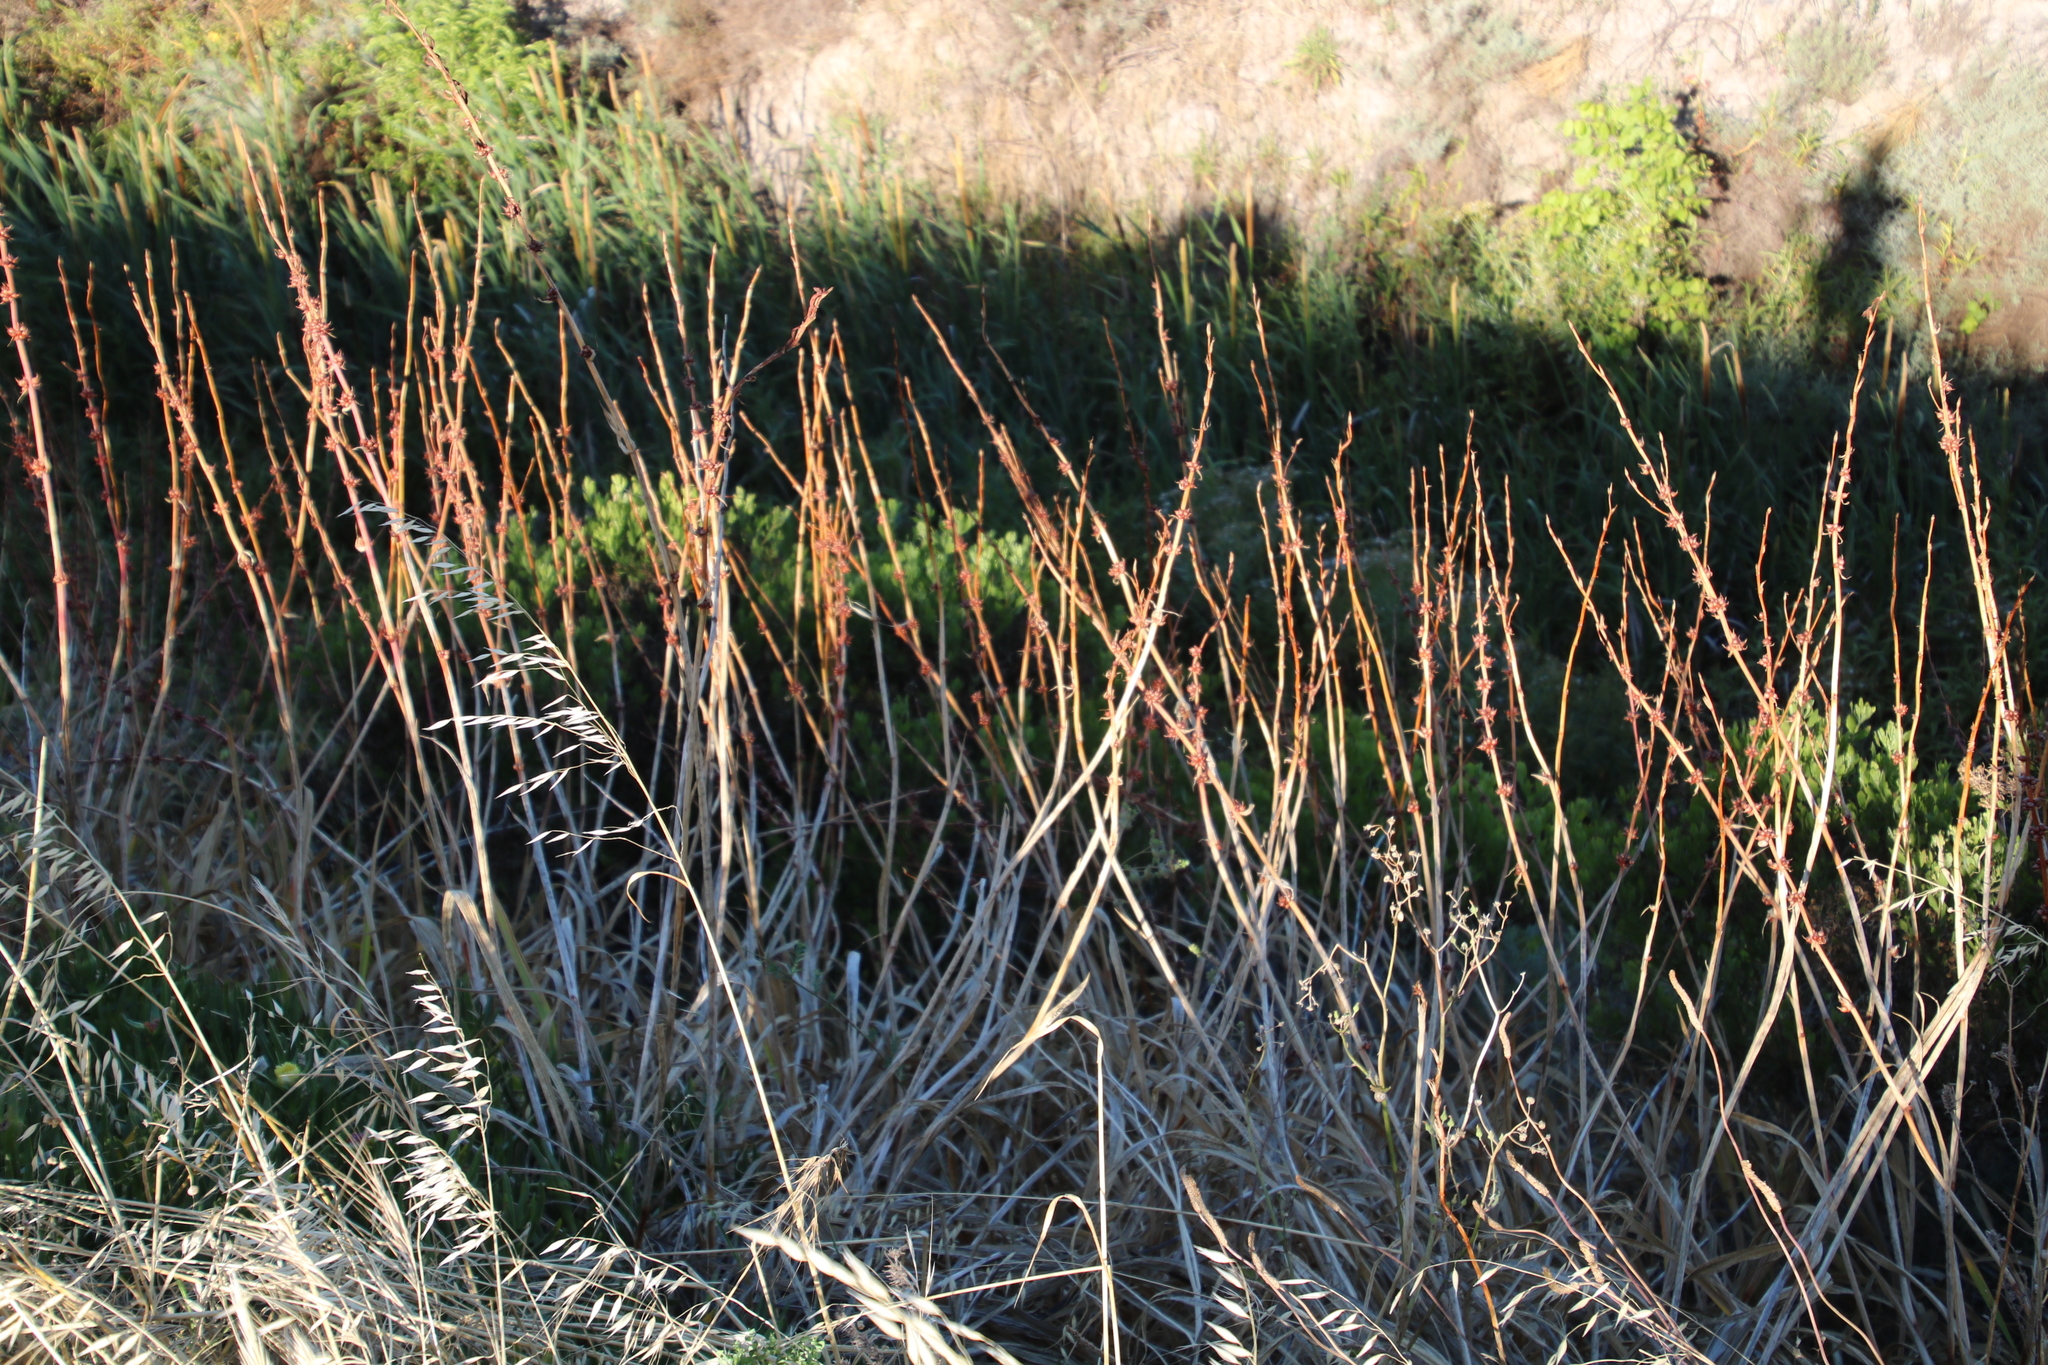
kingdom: Plantae
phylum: Tracheophyta
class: Liliopsida
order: Asparagales
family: Iridaceae
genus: Watsonia
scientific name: Watsonia meriana
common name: Bulbil bugle-lily
